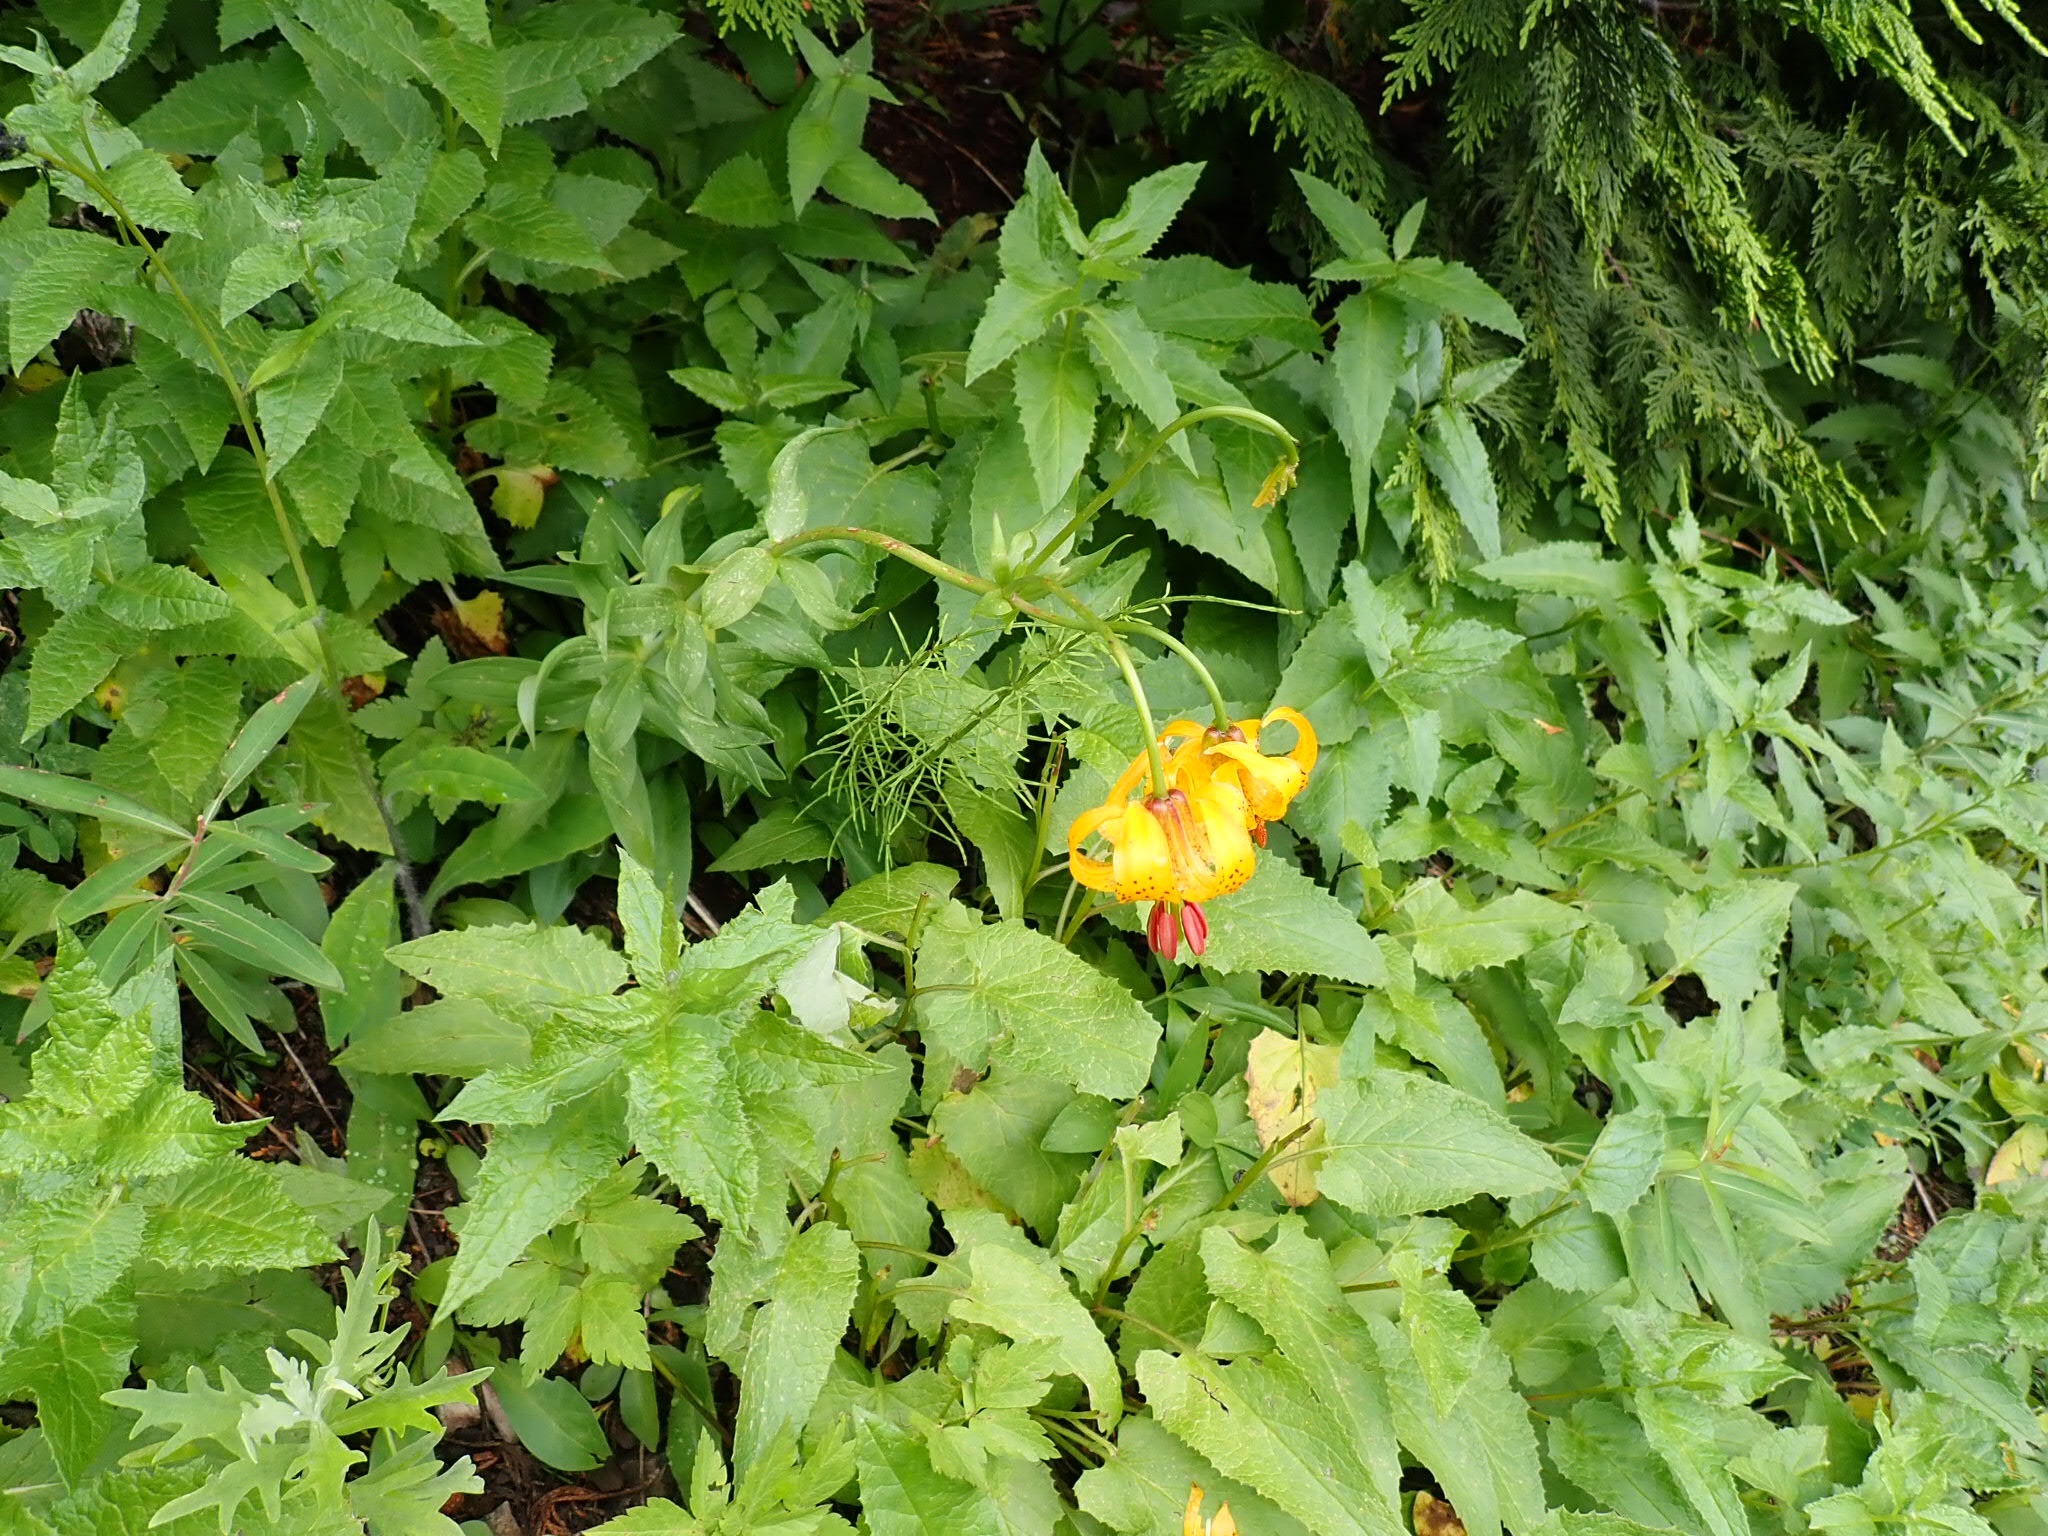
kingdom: Plantae
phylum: Tracheophyta
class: Liliopsida
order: Liliales
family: Liliaceae
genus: Lilium
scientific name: Lilium columbianum
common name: Columbia lily
